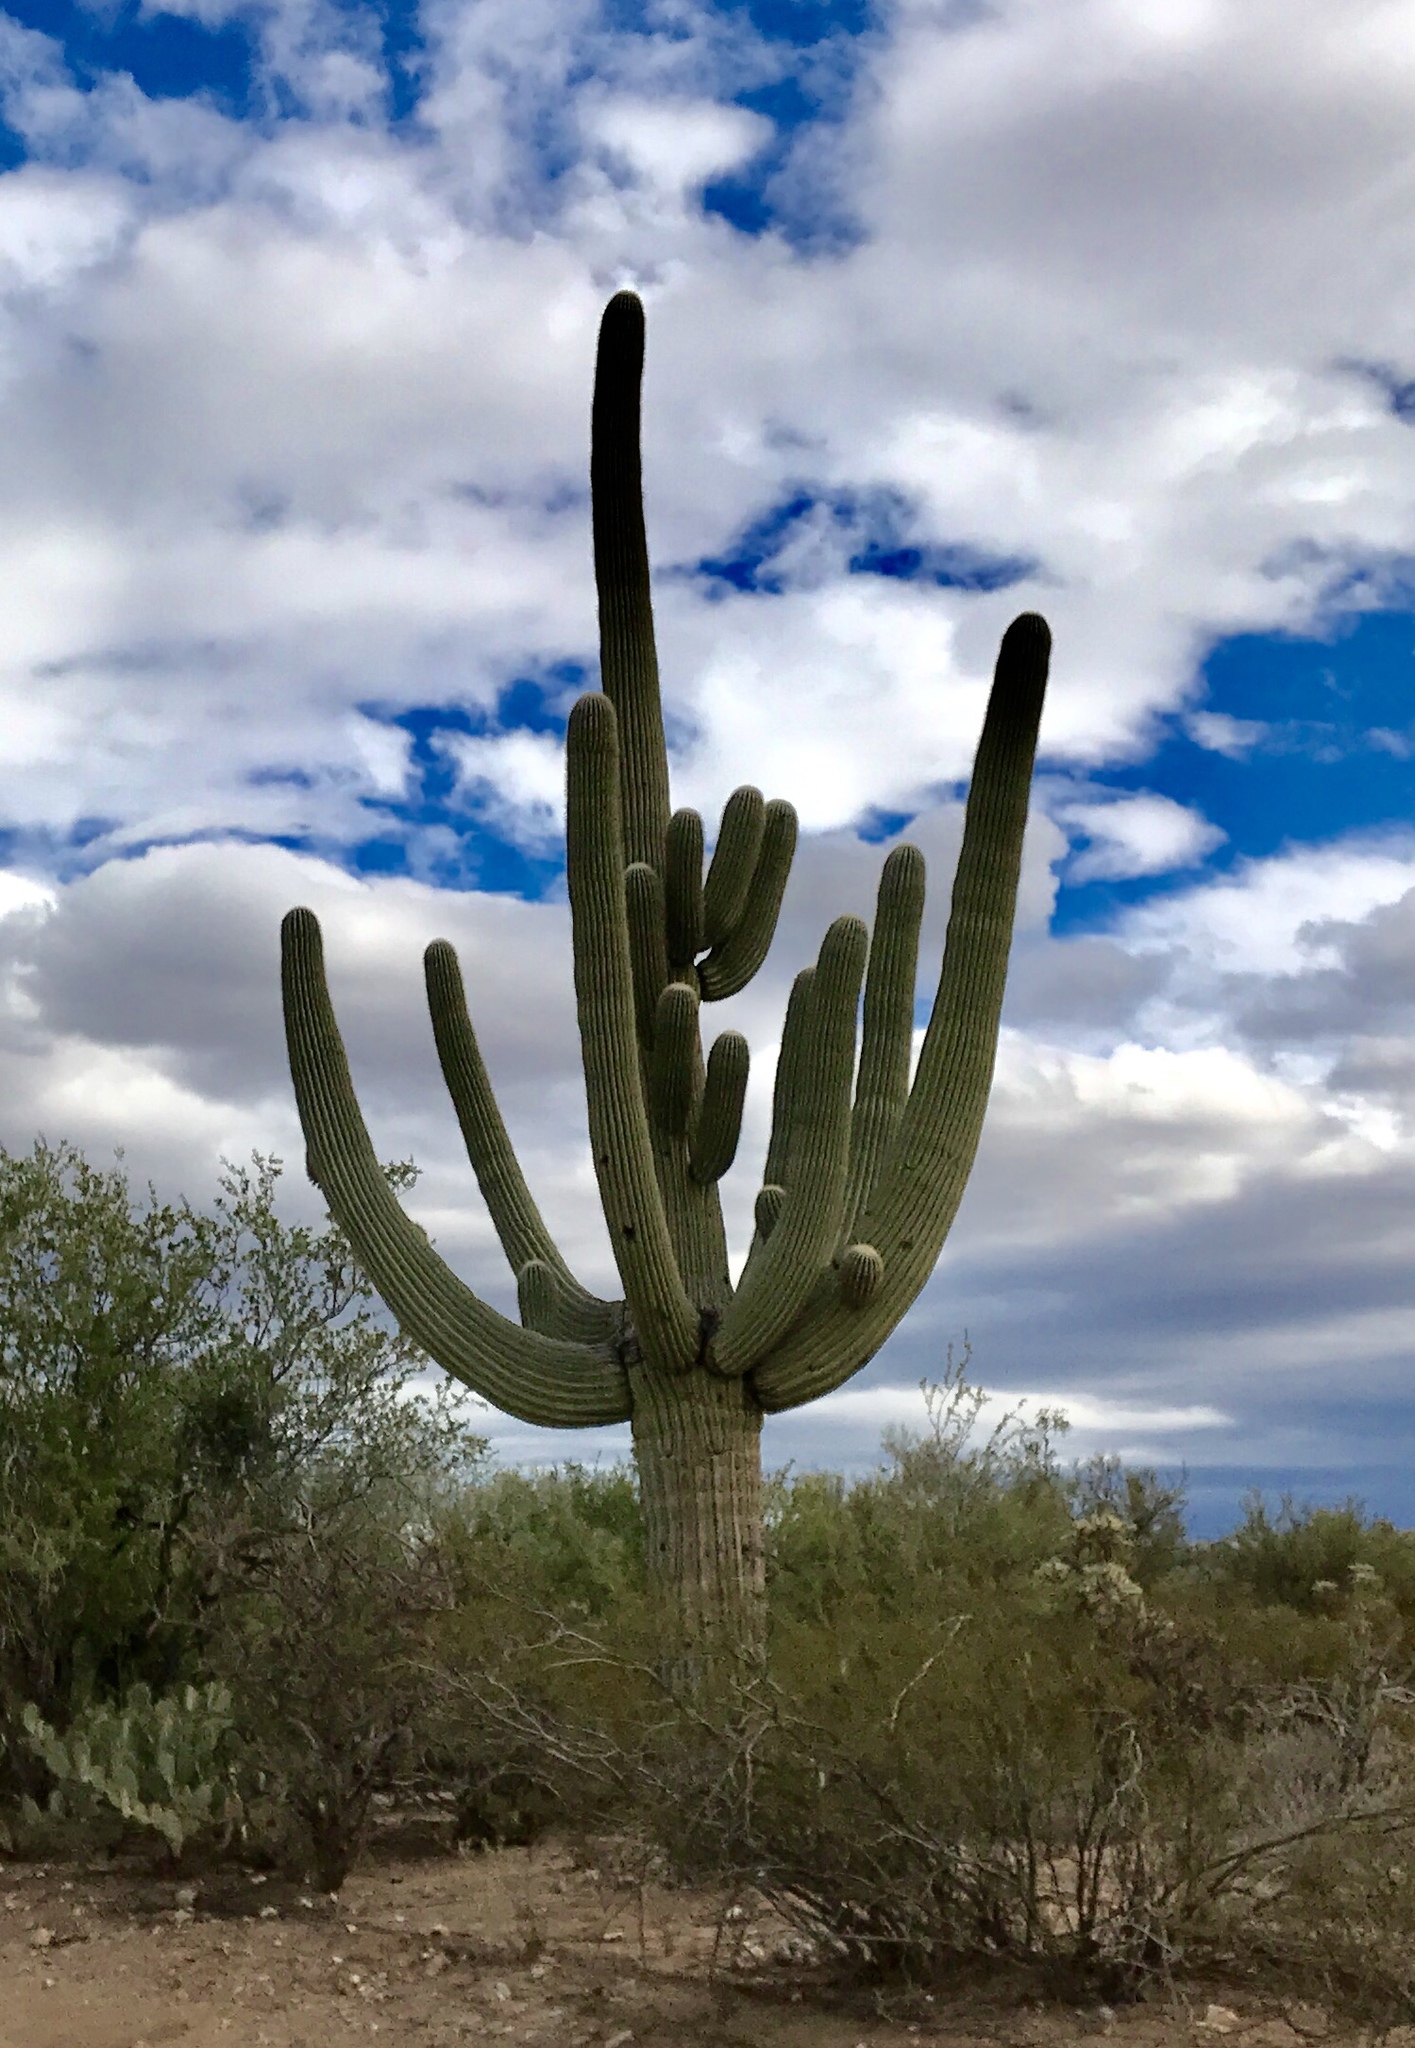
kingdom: Plantae
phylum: Tracheophyta
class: Magnoliopsida
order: Caryophyllales
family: Cactaceae
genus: Carnegiea
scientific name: Carnegiea gigantea
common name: Saguaro
